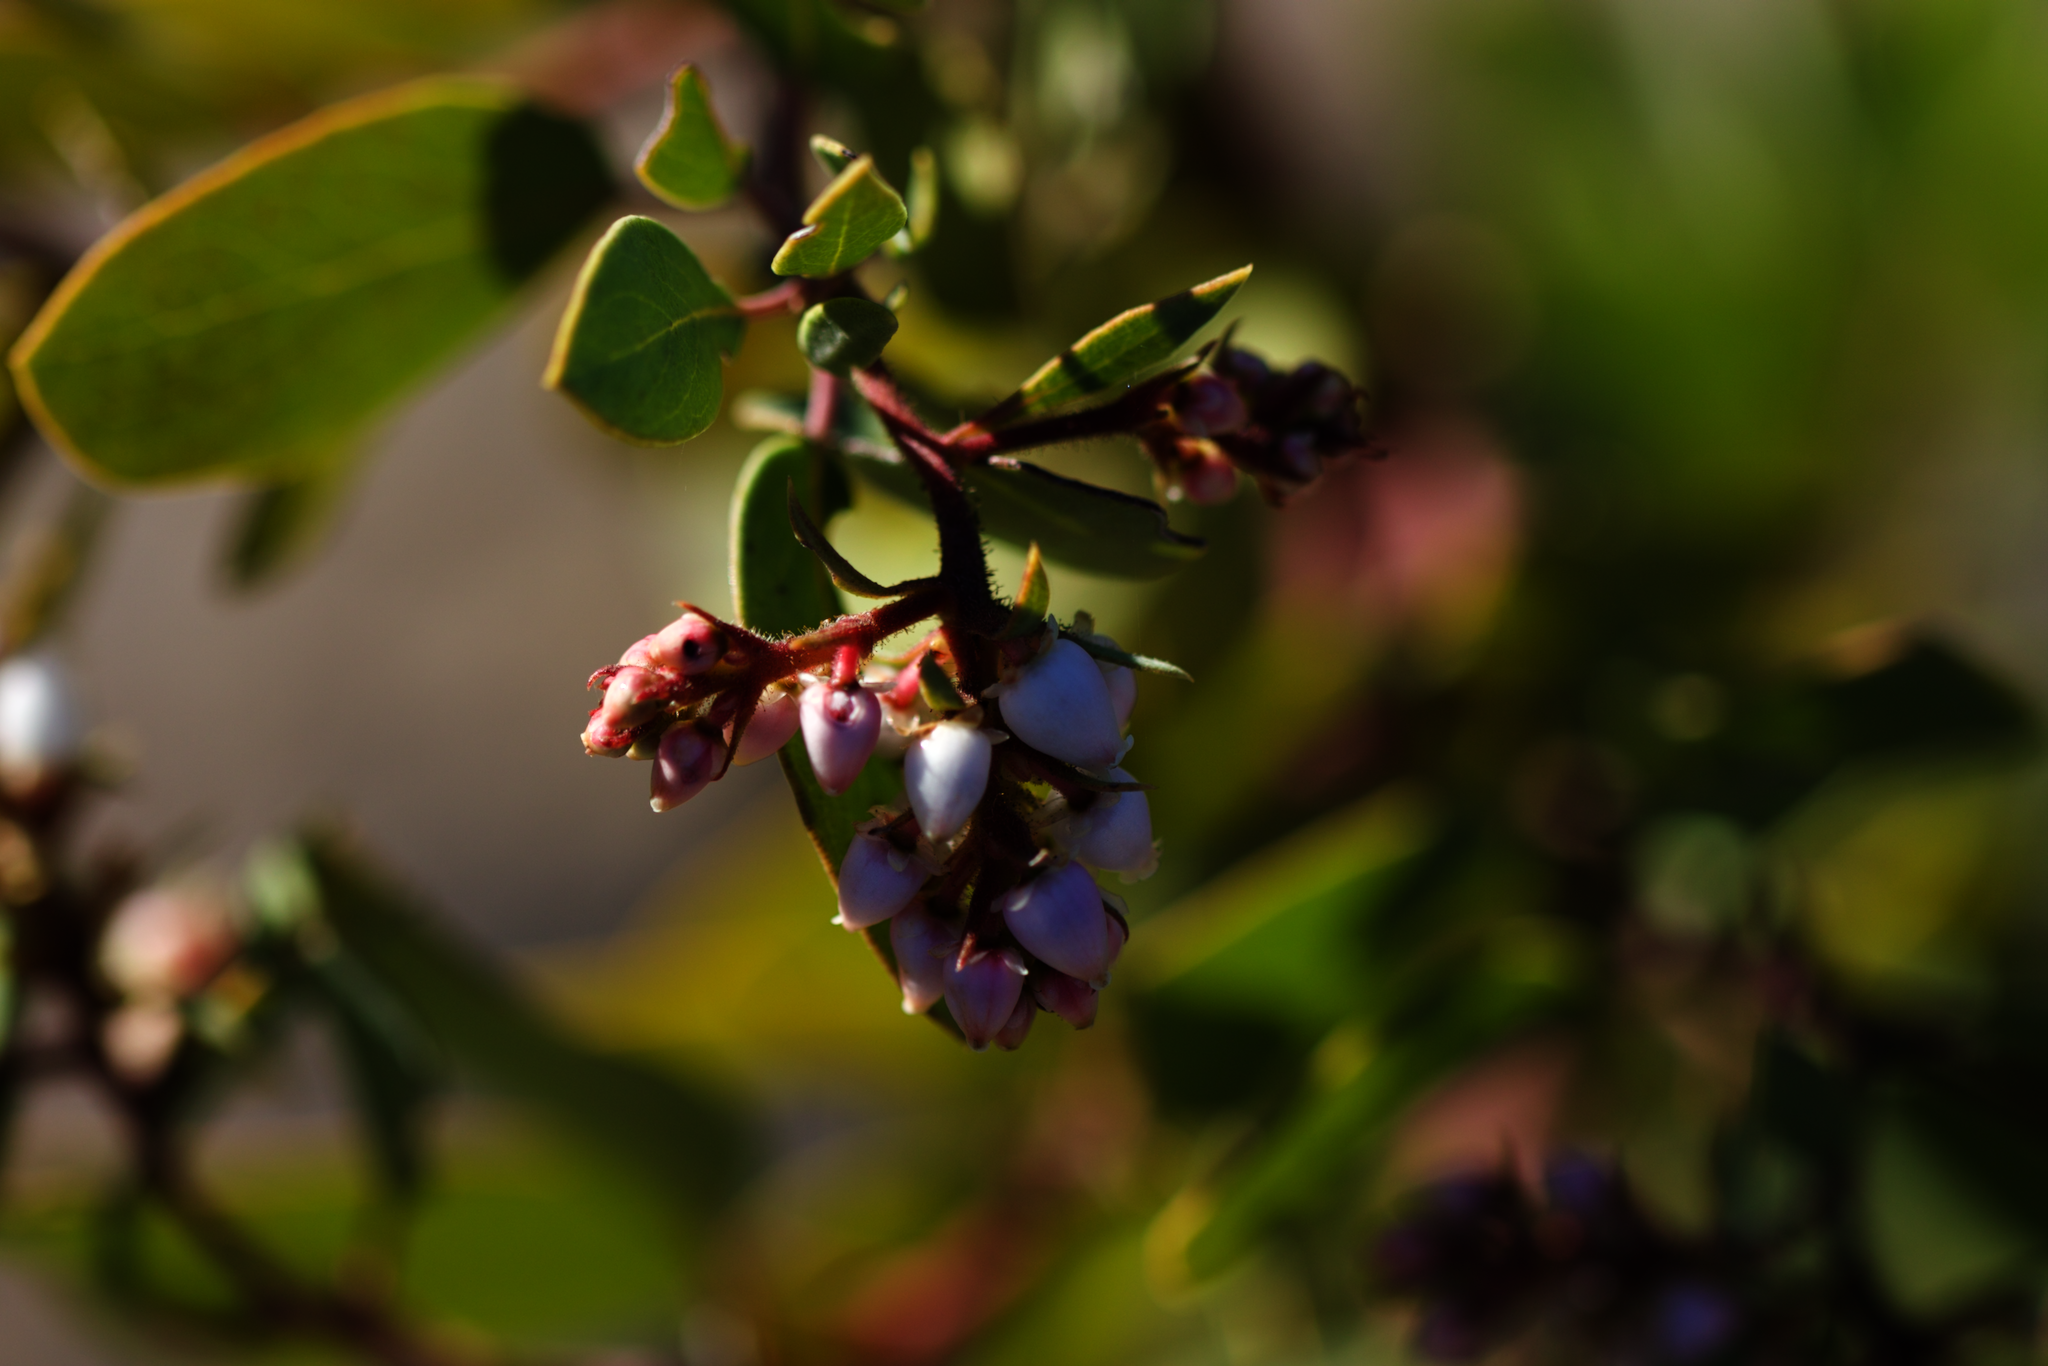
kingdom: Plantae
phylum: Tracheophyta
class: Magnoliopsida
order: Ericales
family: Ericaceae
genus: Arctostaphylos
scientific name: Arctostaphylos glandulosa
